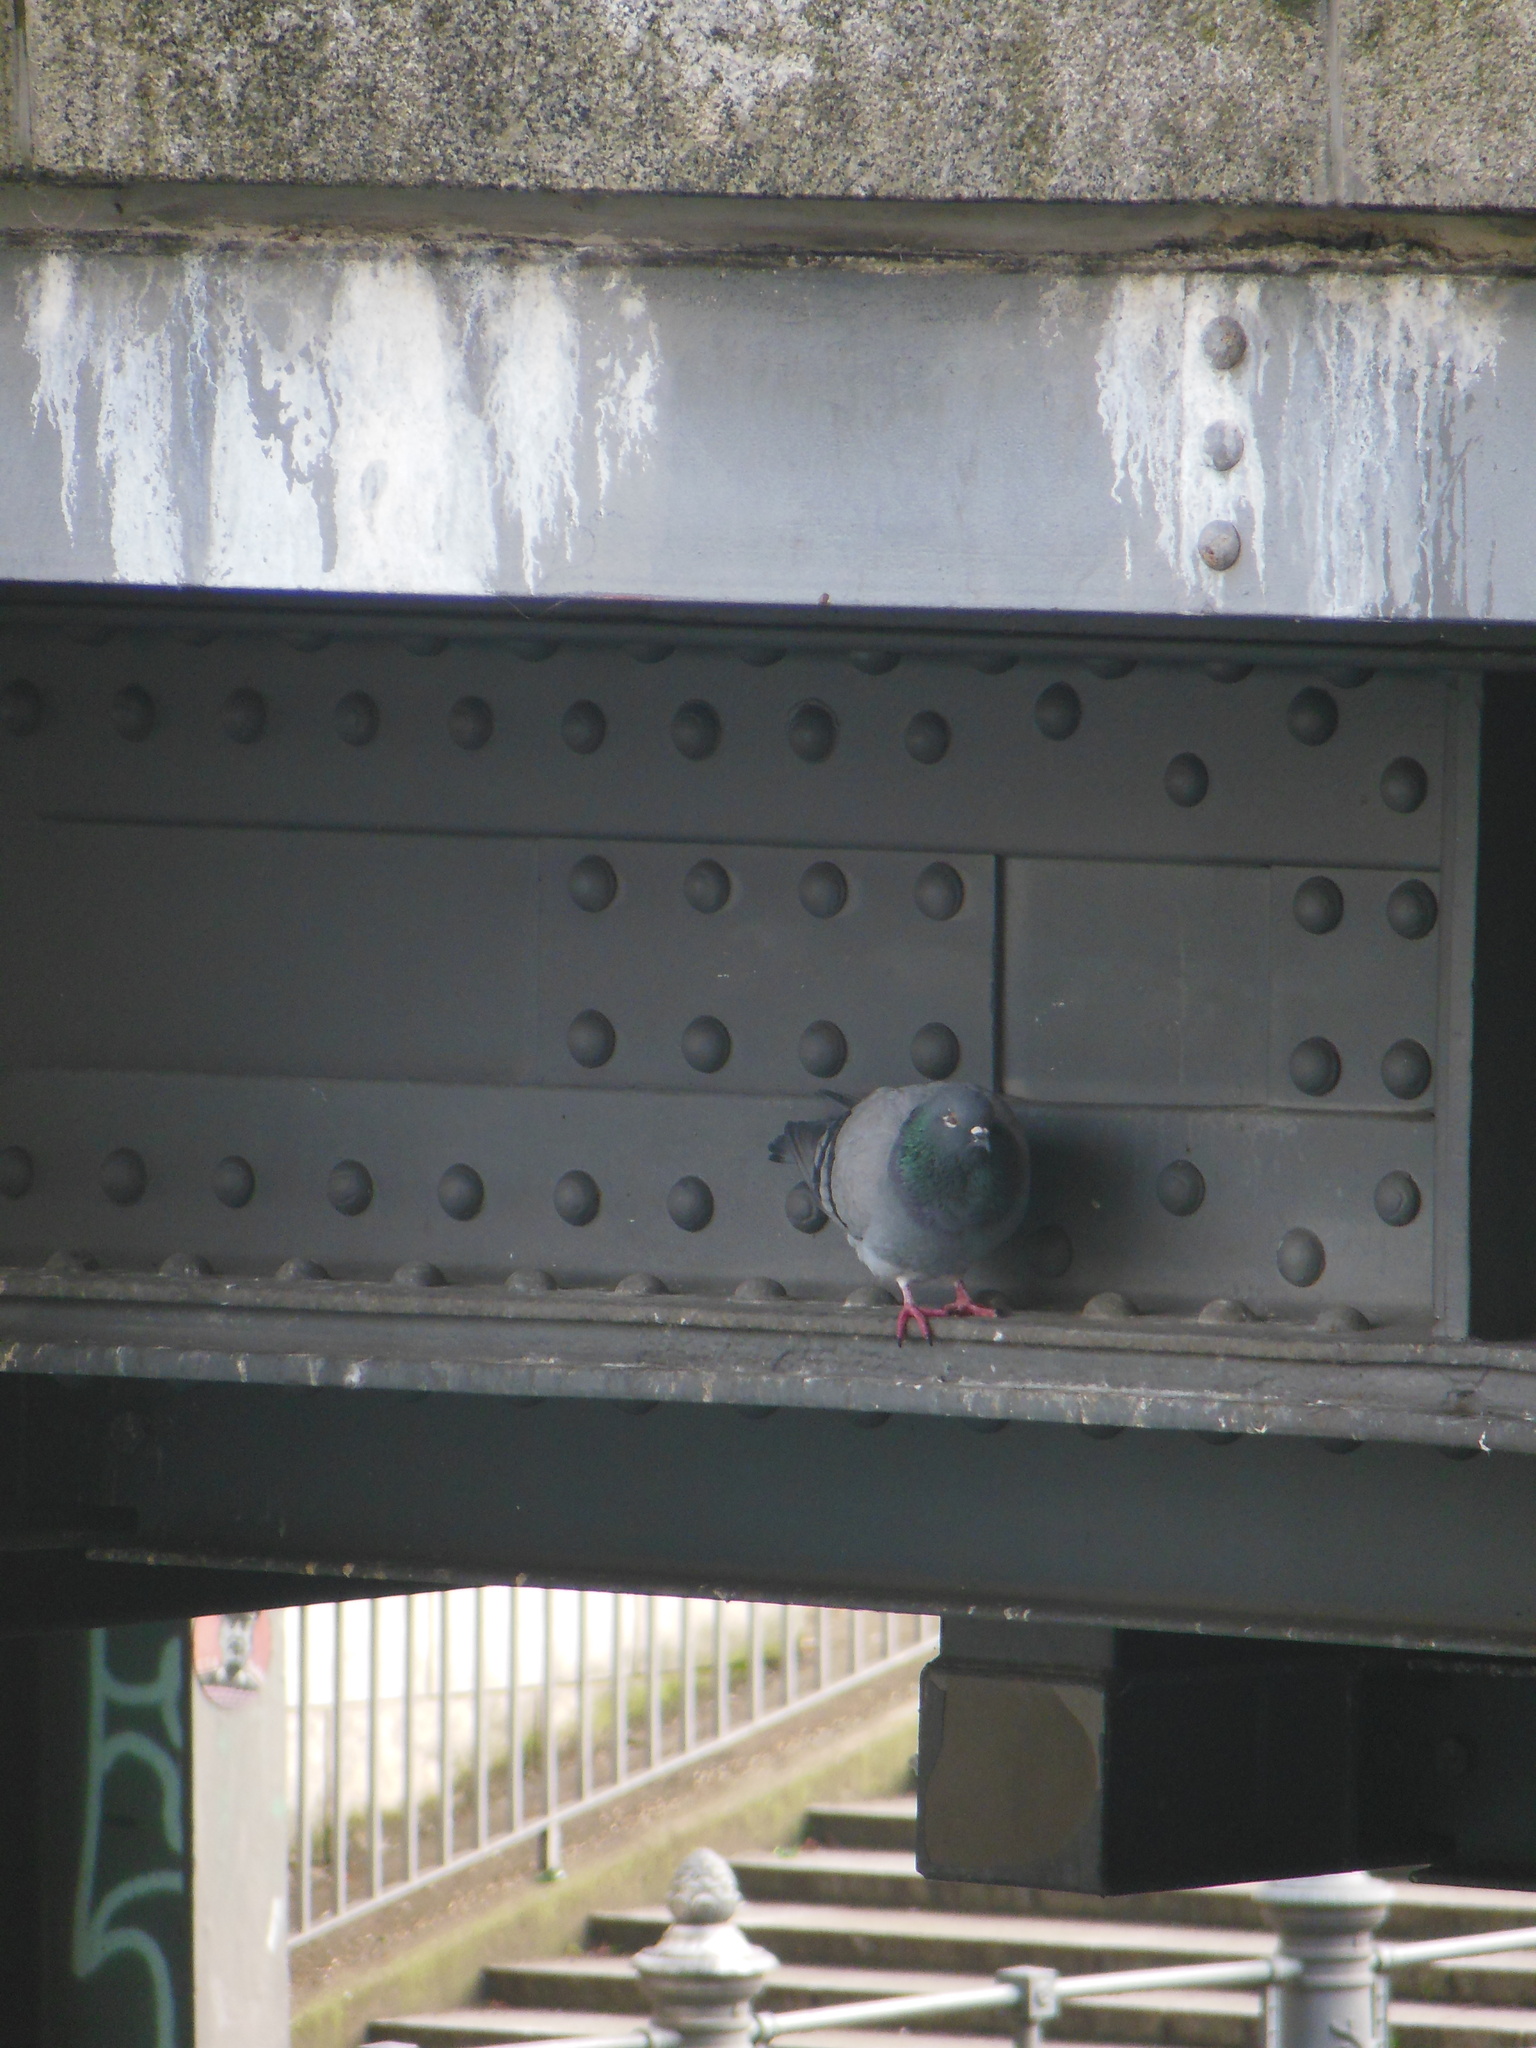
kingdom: Animalia
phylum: Chordata
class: Aves
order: Columbiformes
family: Columbidae
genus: Columba
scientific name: Columba livia
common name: Rock pigeon
